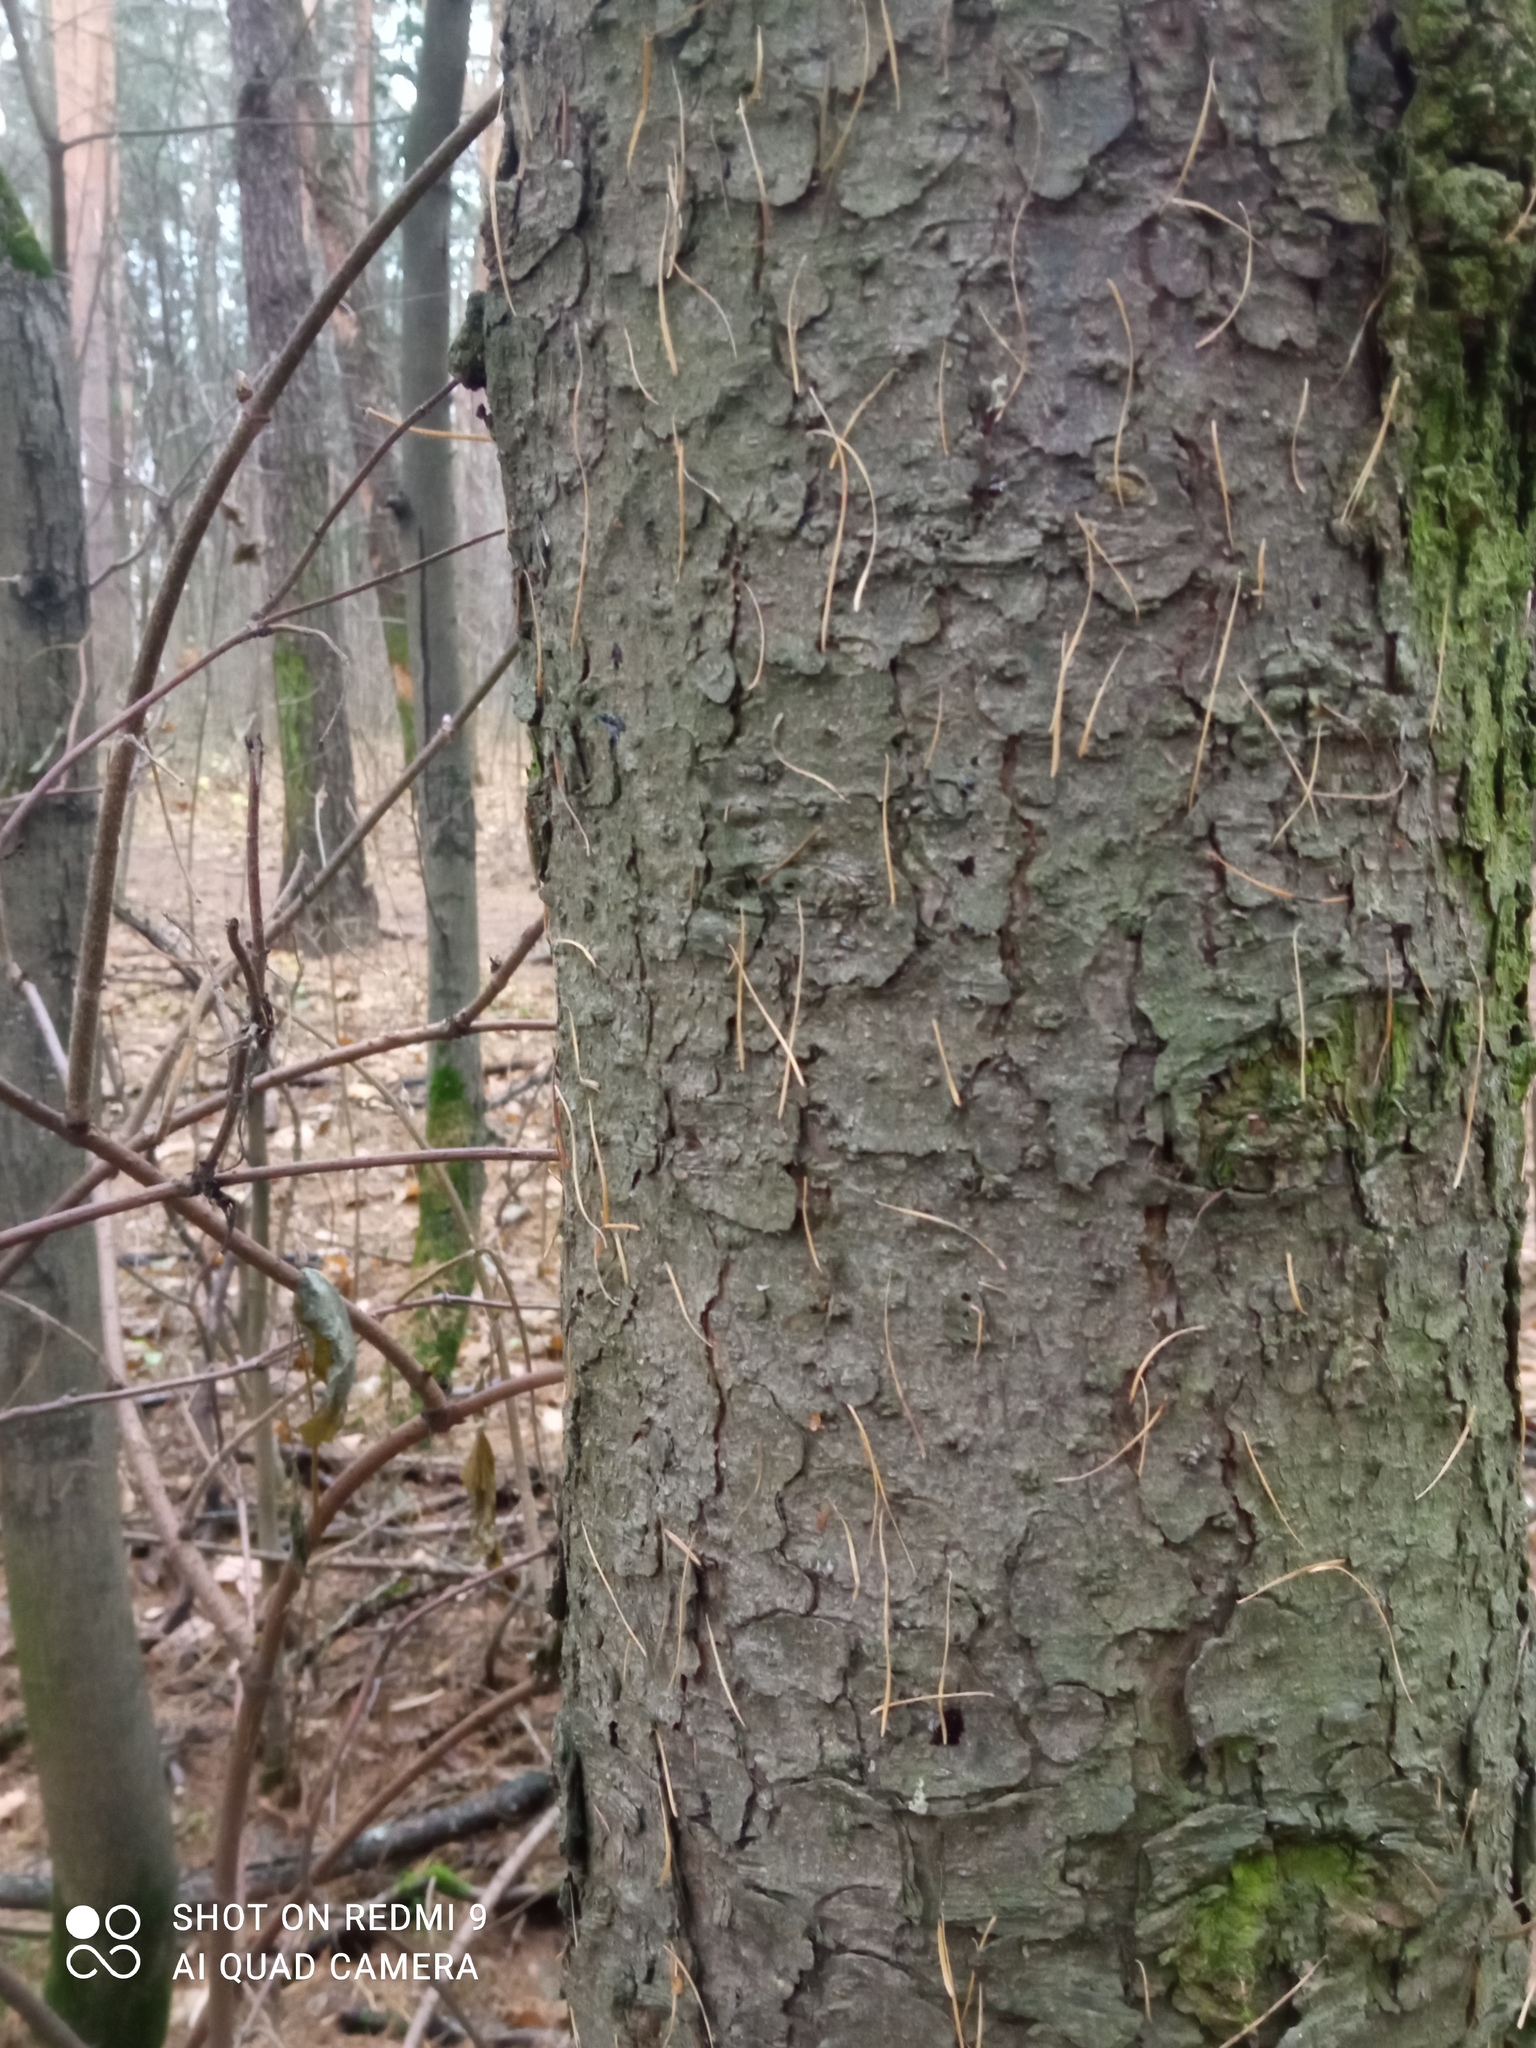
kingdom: Plantae
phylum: Tracheophyta
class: Pinopsida
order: Pinales
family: Pinaceae
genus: Picea
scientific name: Picea abies
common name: Norway spruce
